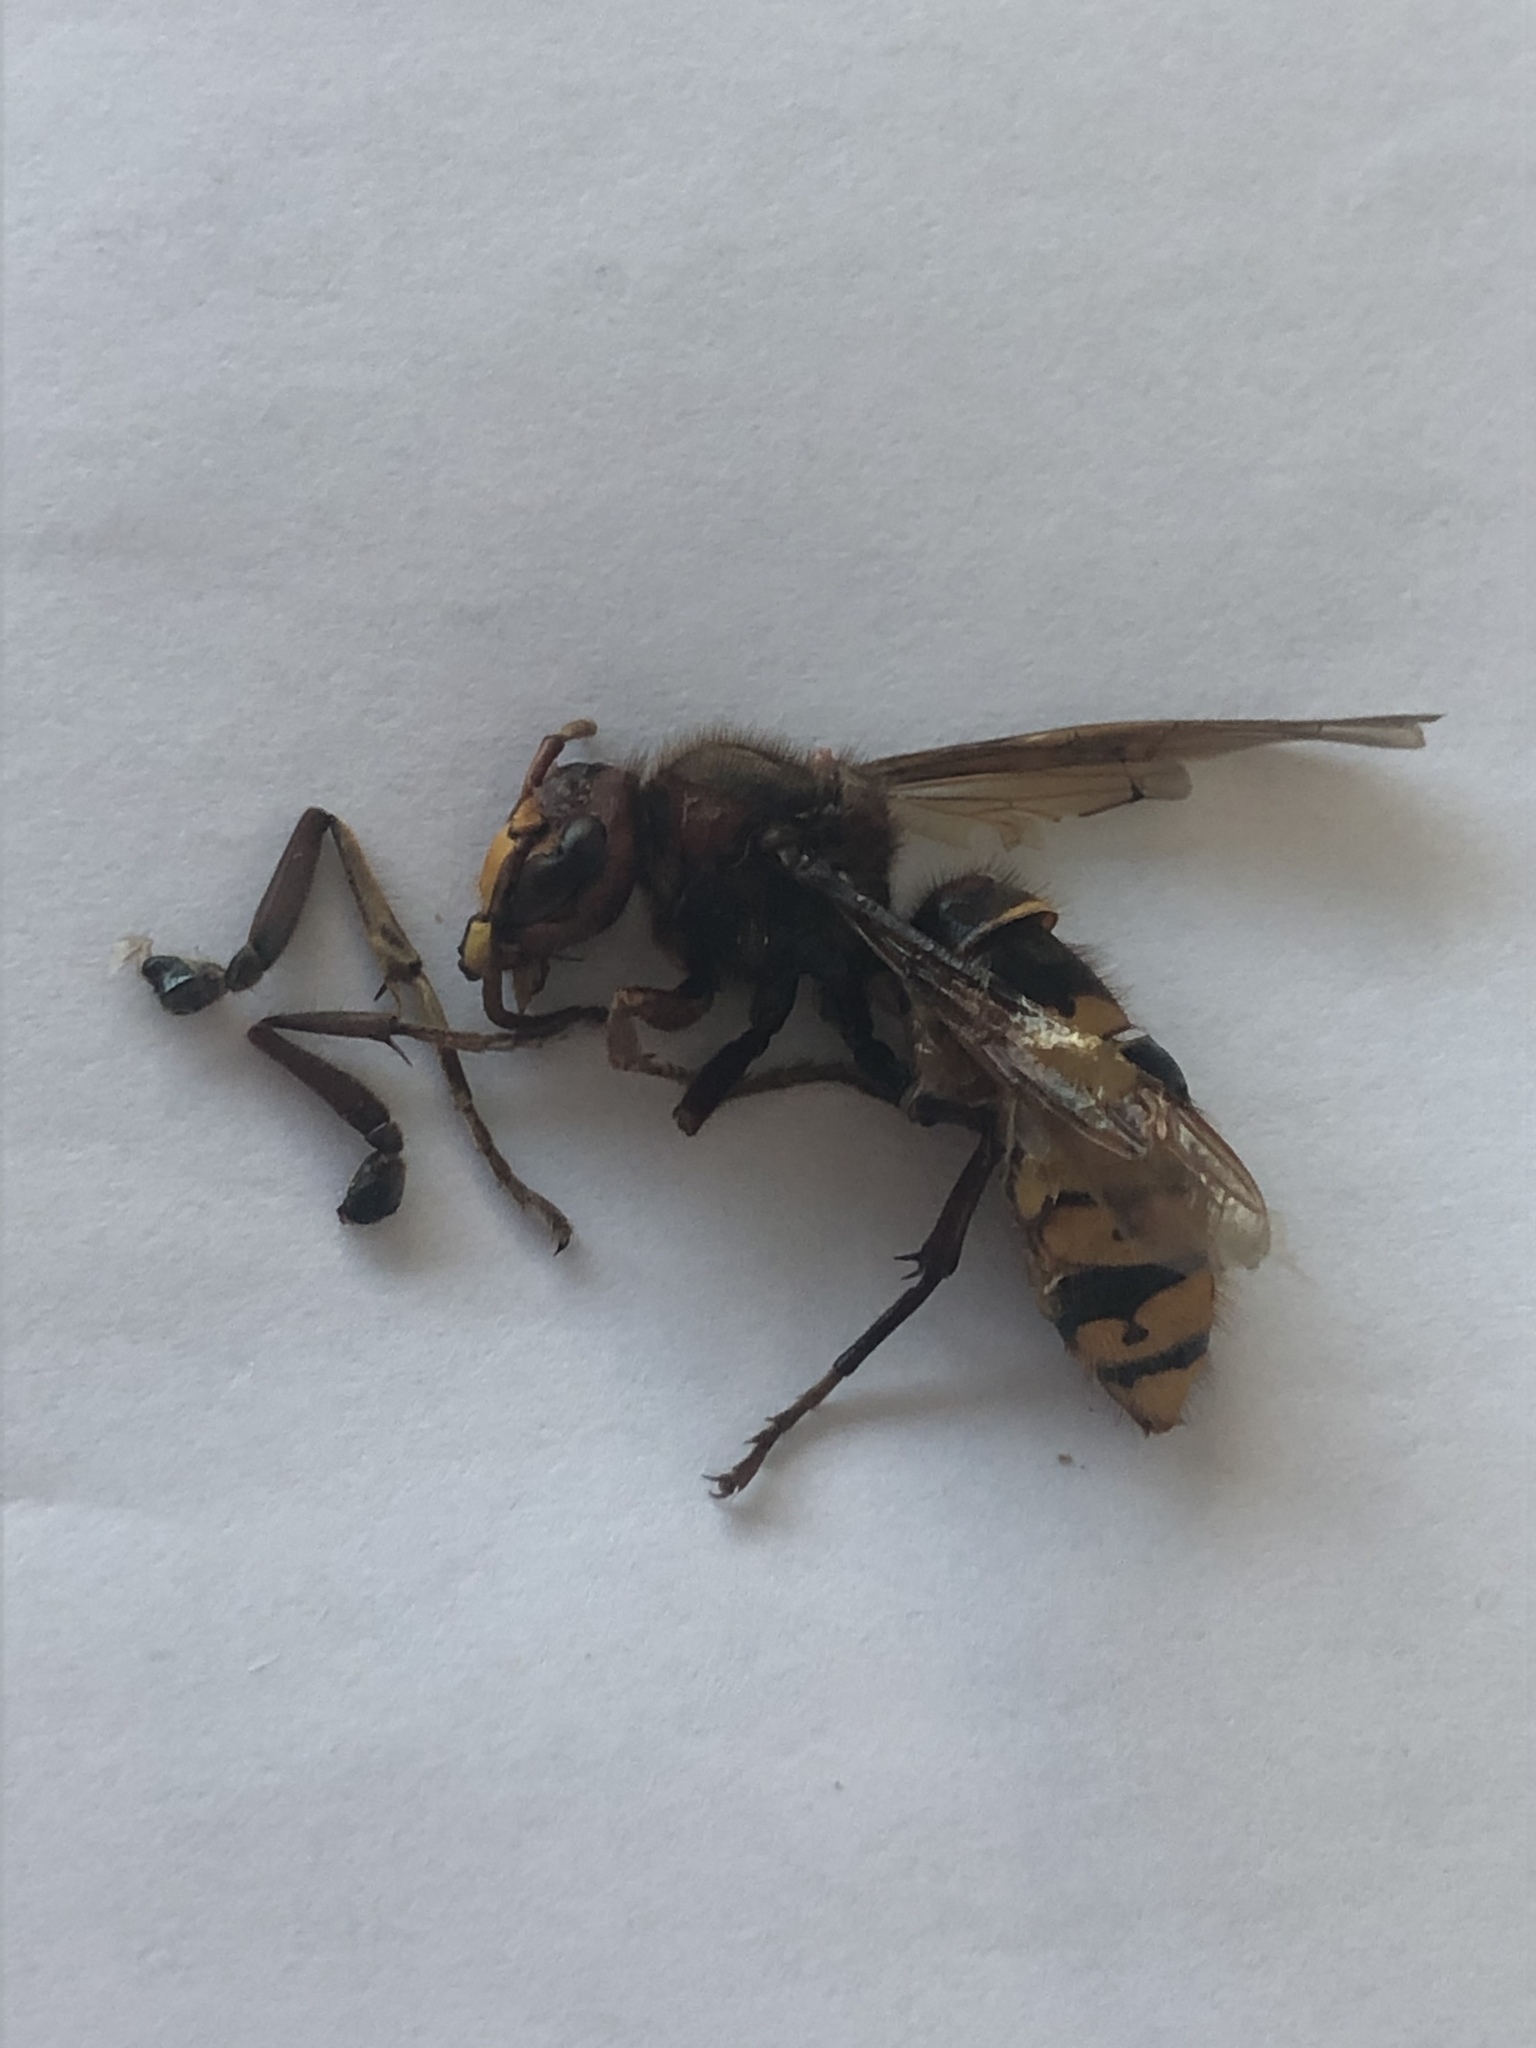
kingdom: Animalia
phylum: Arthropoda
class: Insecta
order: Hymenoptera
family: Vespidae
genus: Vespa
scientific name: Vespa crabro
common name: Hornet
